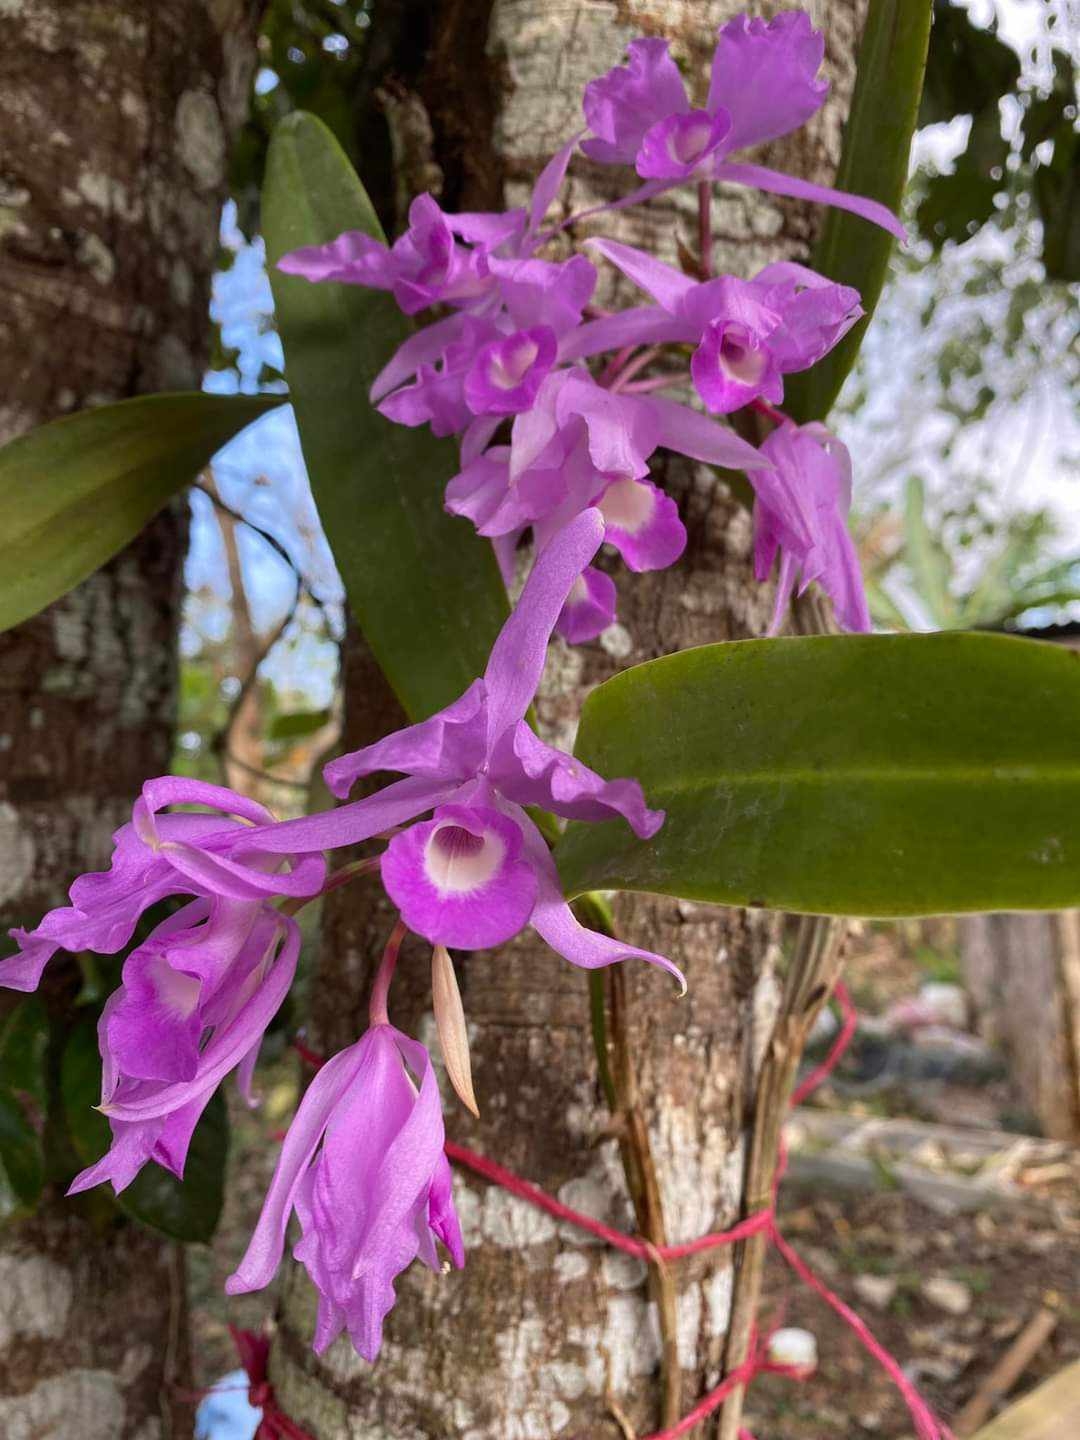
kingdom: Plantae
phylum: Tracheophyta
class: Liliopsida
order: Asparagales
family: Orchidaceae
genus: Guarianthe
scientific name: Guarianthe skinneri
